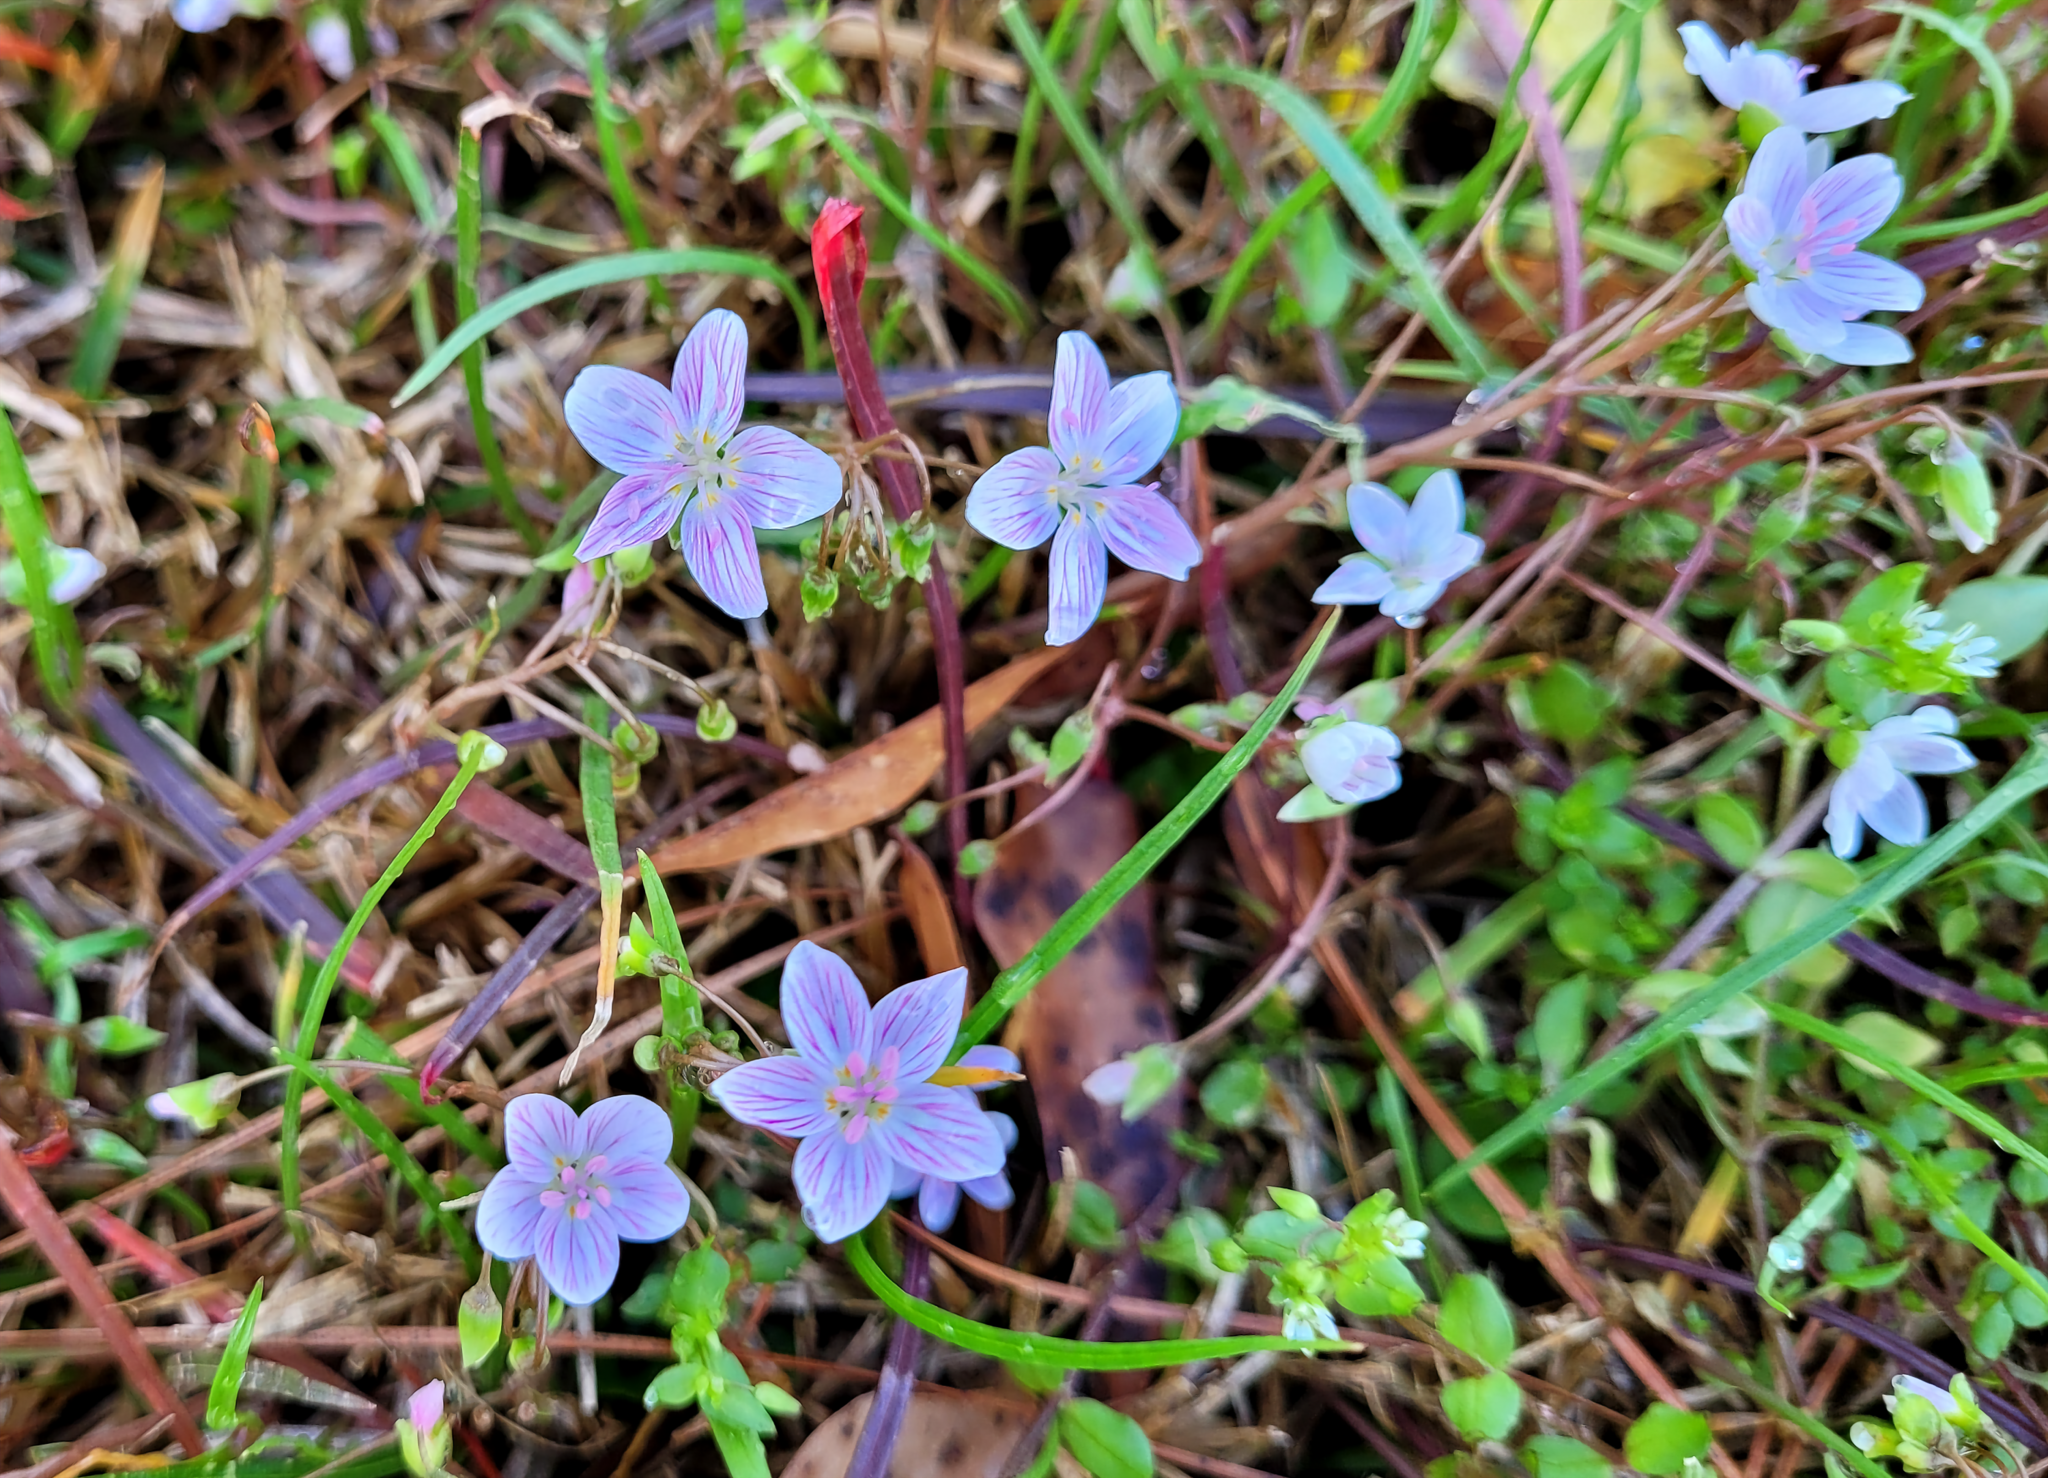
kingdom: Plantae
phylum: Tracheophyta
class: Magnoliopsida
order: Caryophyllales
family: Montiaceae
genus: Claytonia
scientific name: Claytonia virginica
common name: Virginia springbeauty
